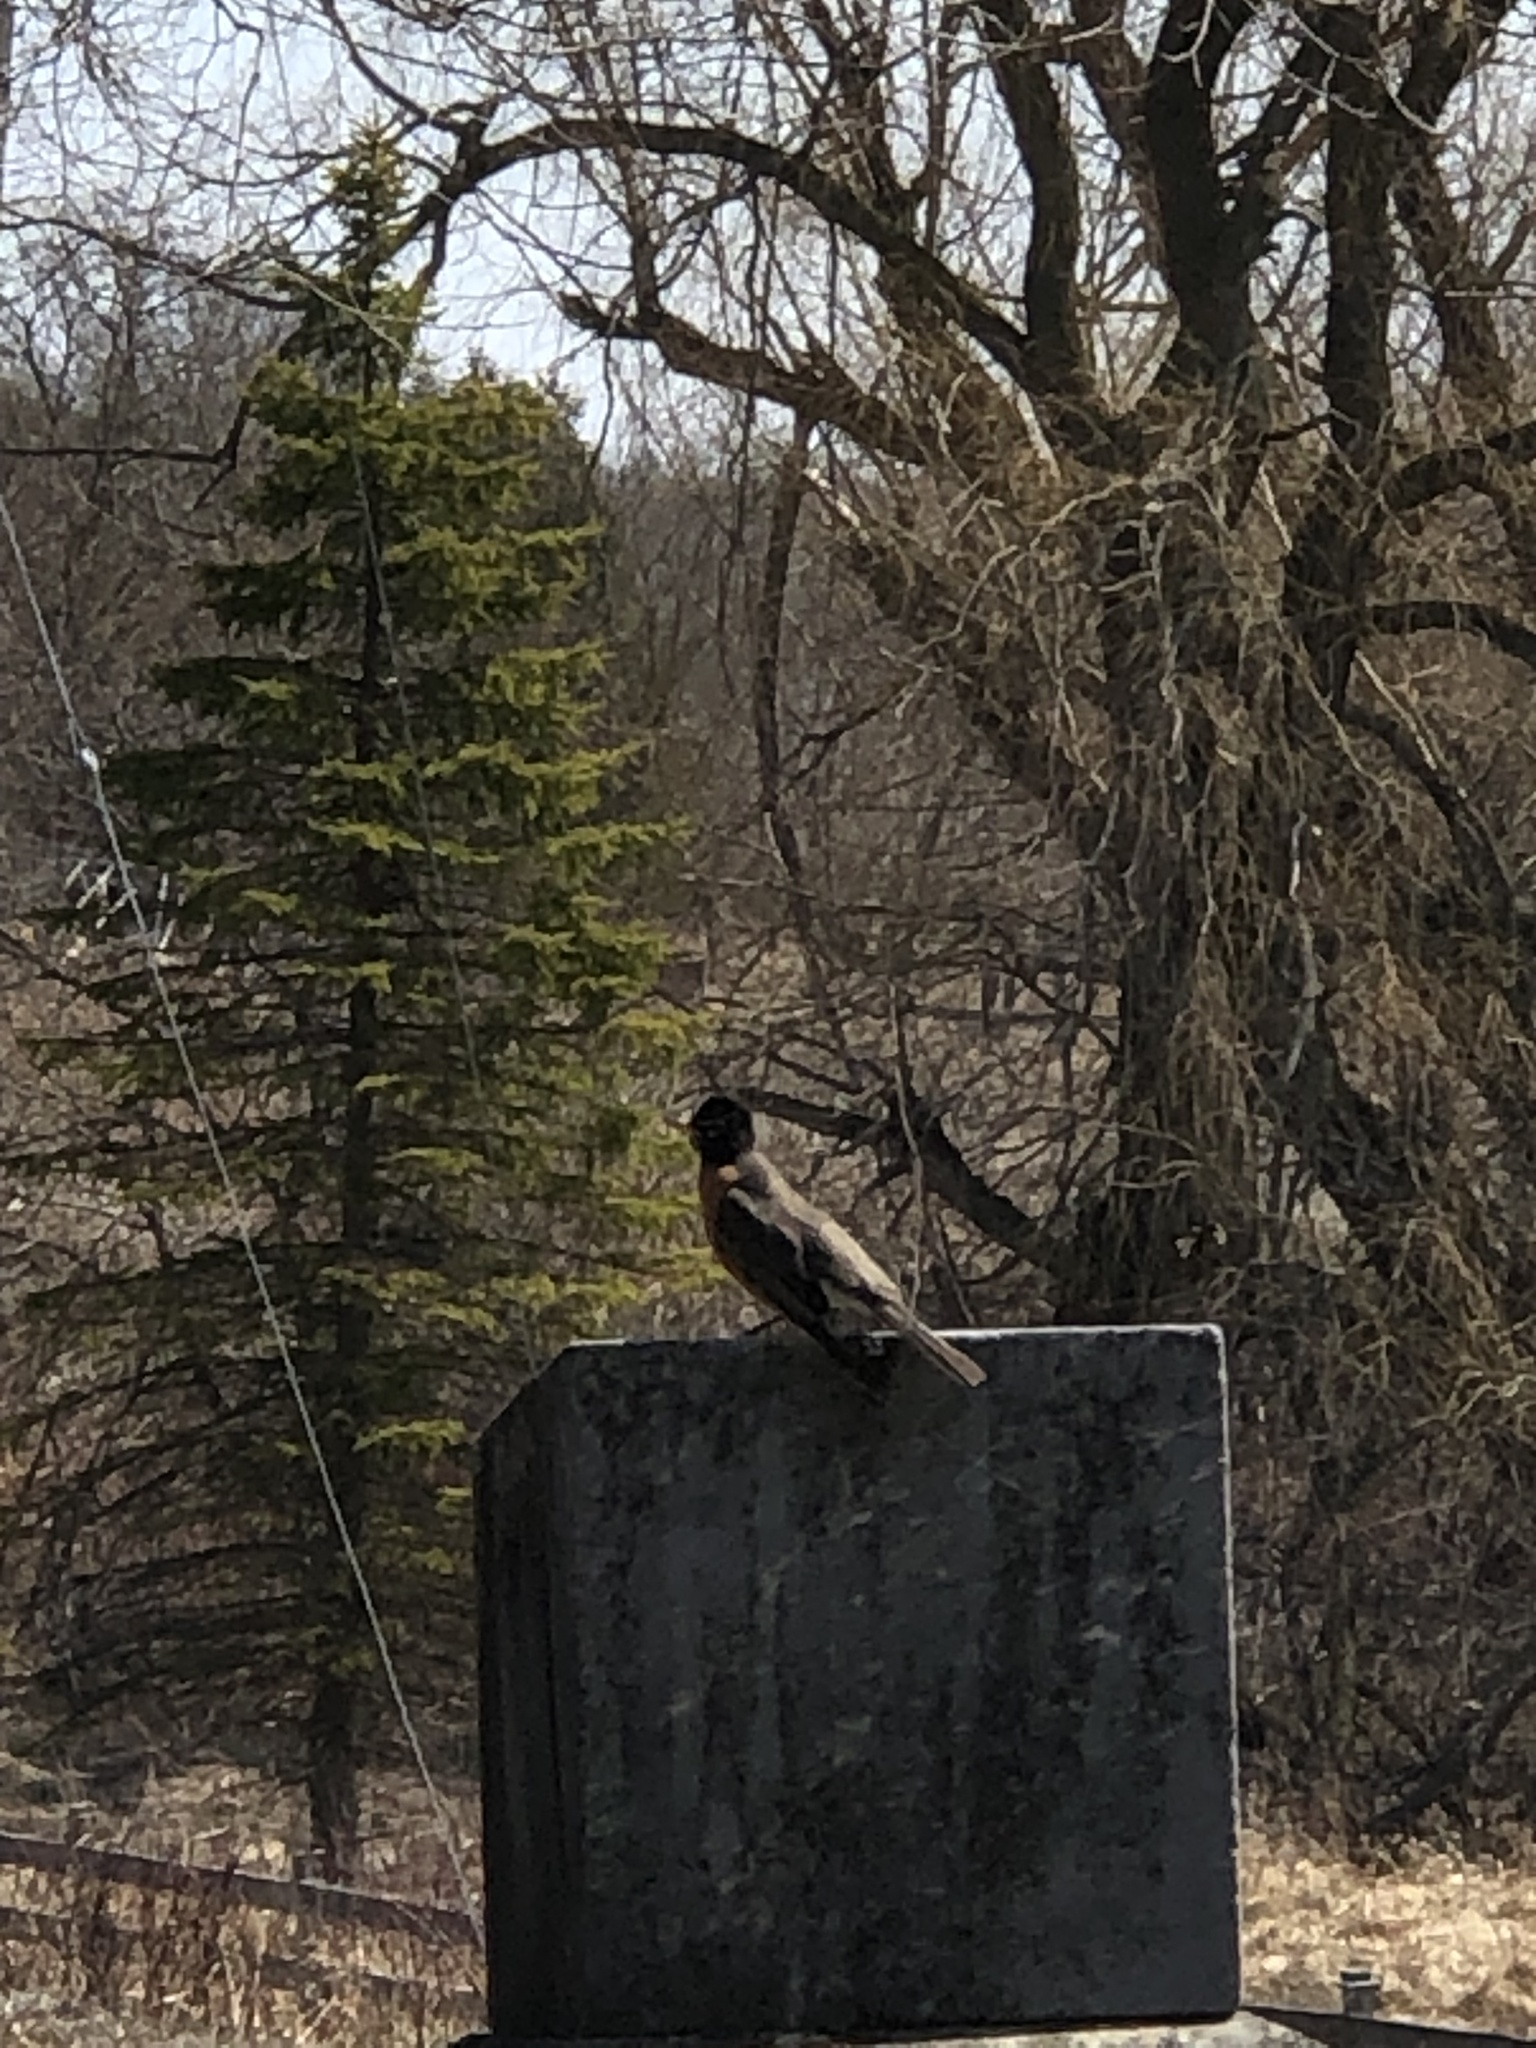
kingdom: Animalia
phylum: Chordata
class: Aves
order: Passeriformes
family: Turdidae
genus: Turdus
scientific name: Turdus migratorius
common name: American robin
